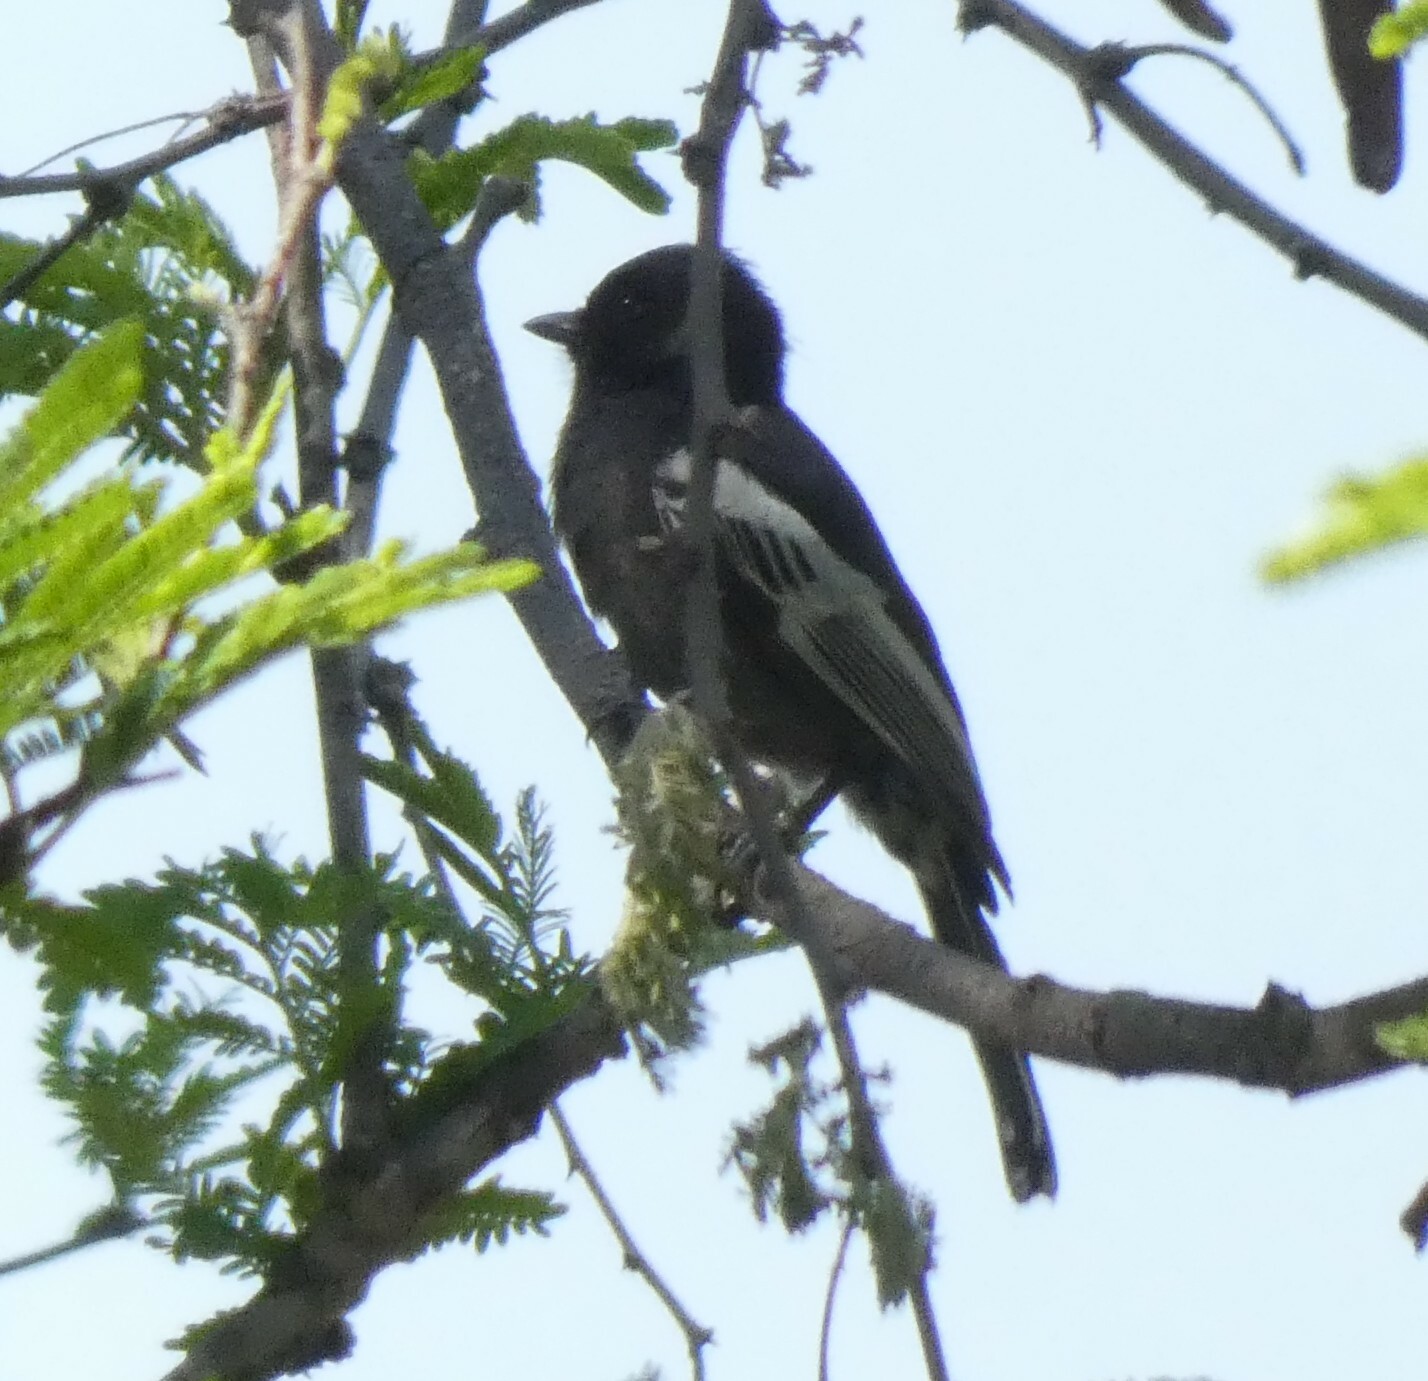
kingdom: Animalia
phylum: Chordata
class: Aves
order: Passeriformes
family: Paridae
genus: Parus
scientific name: Parus niger
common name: Southern black tit
